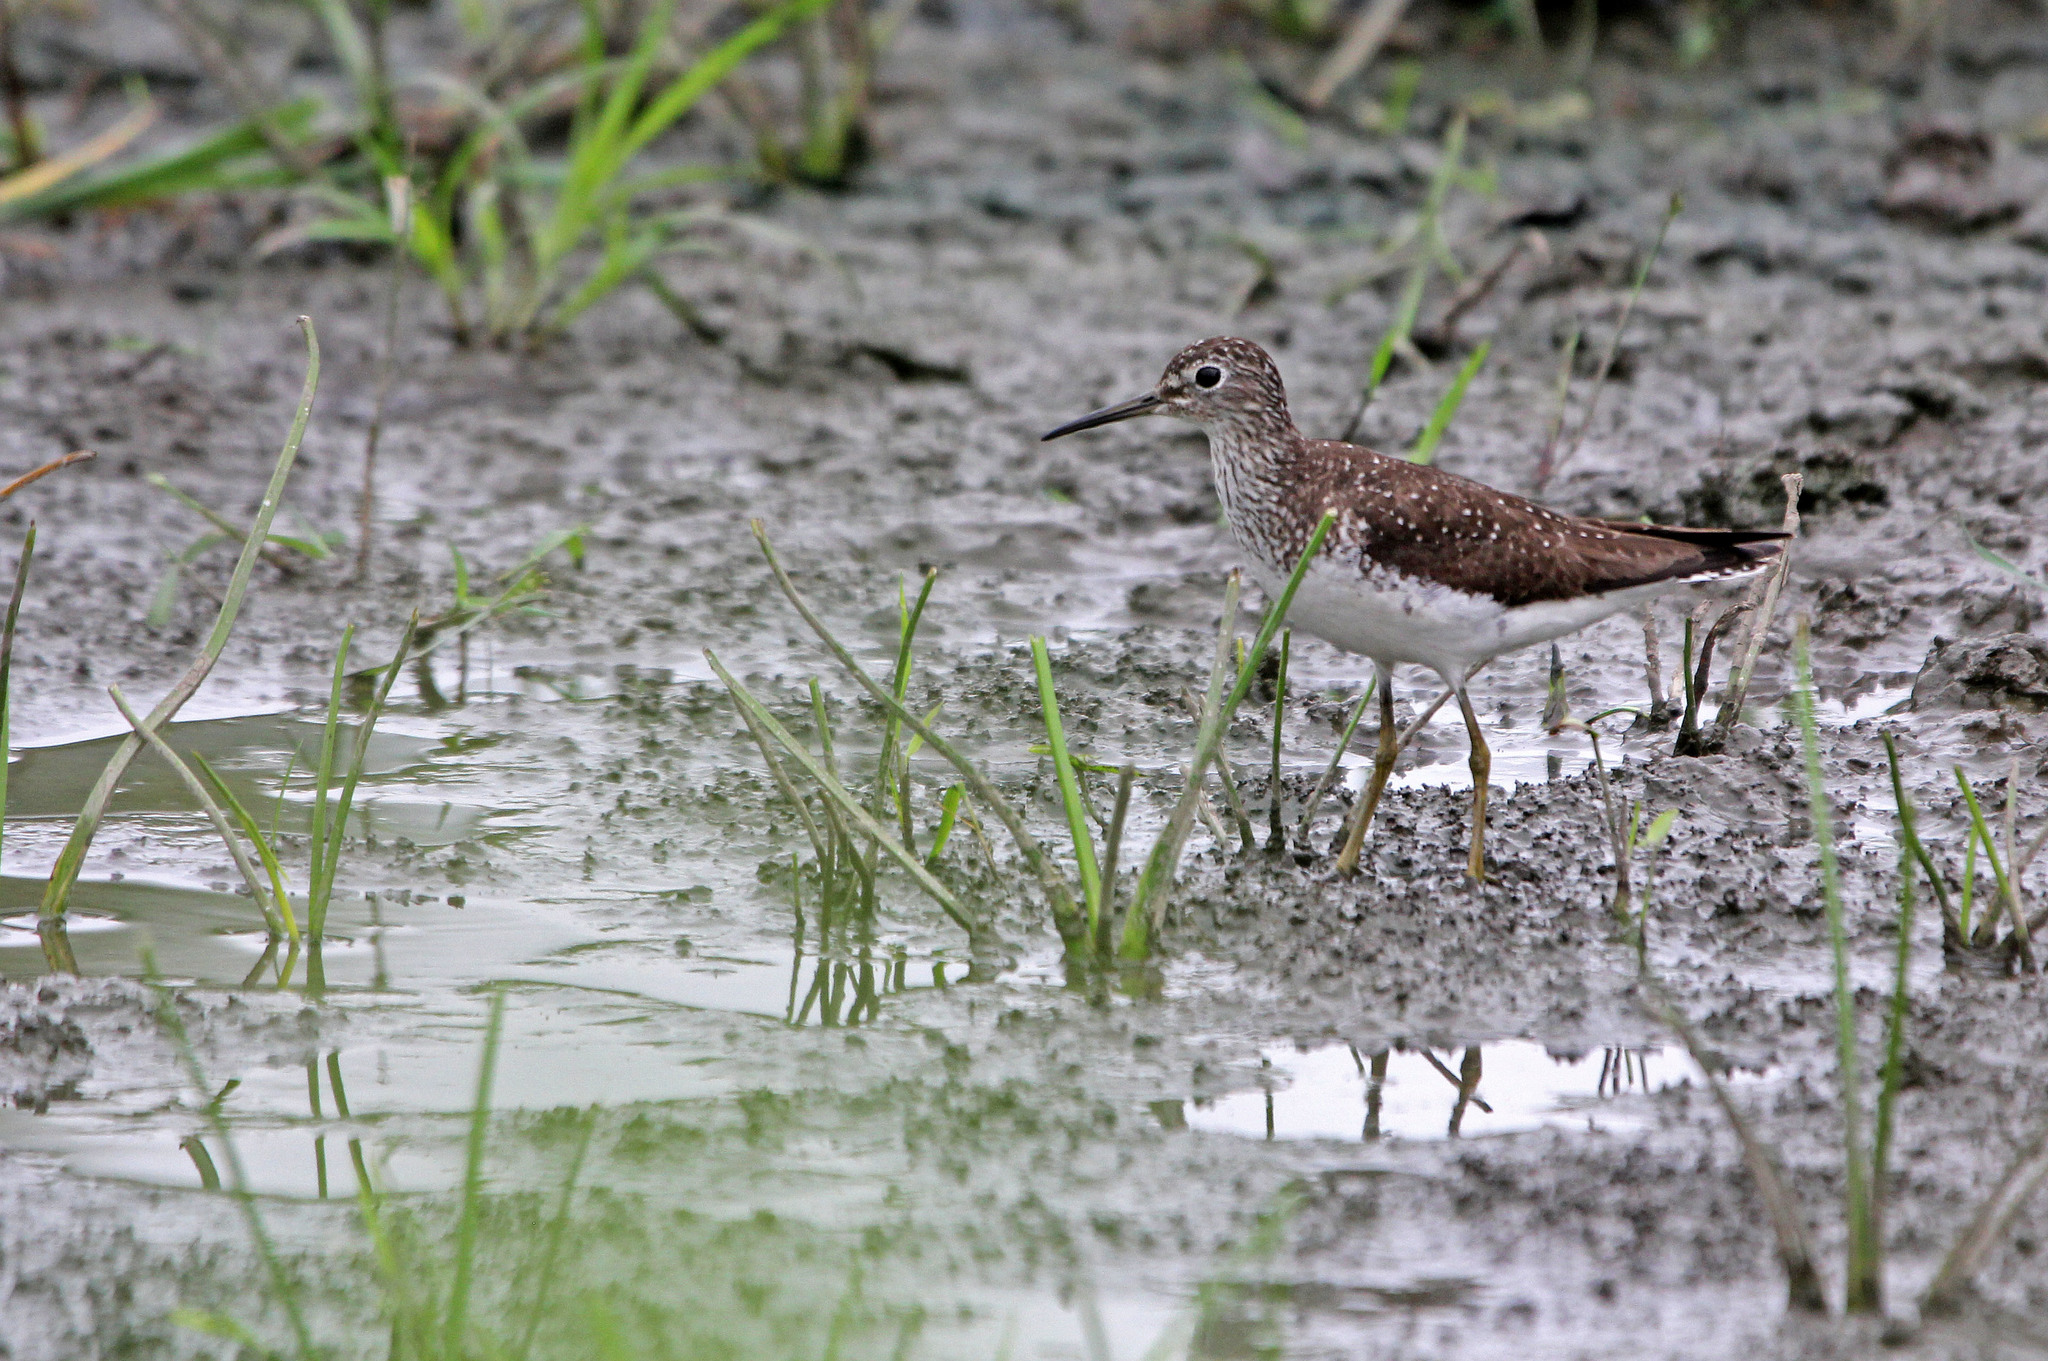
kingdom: Animalia
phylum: Chordata
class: Aves
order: Charadriiformes
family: Scolopacidae
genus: Tringa
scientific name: Tringa solitaria
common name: Solitary sandpiper
